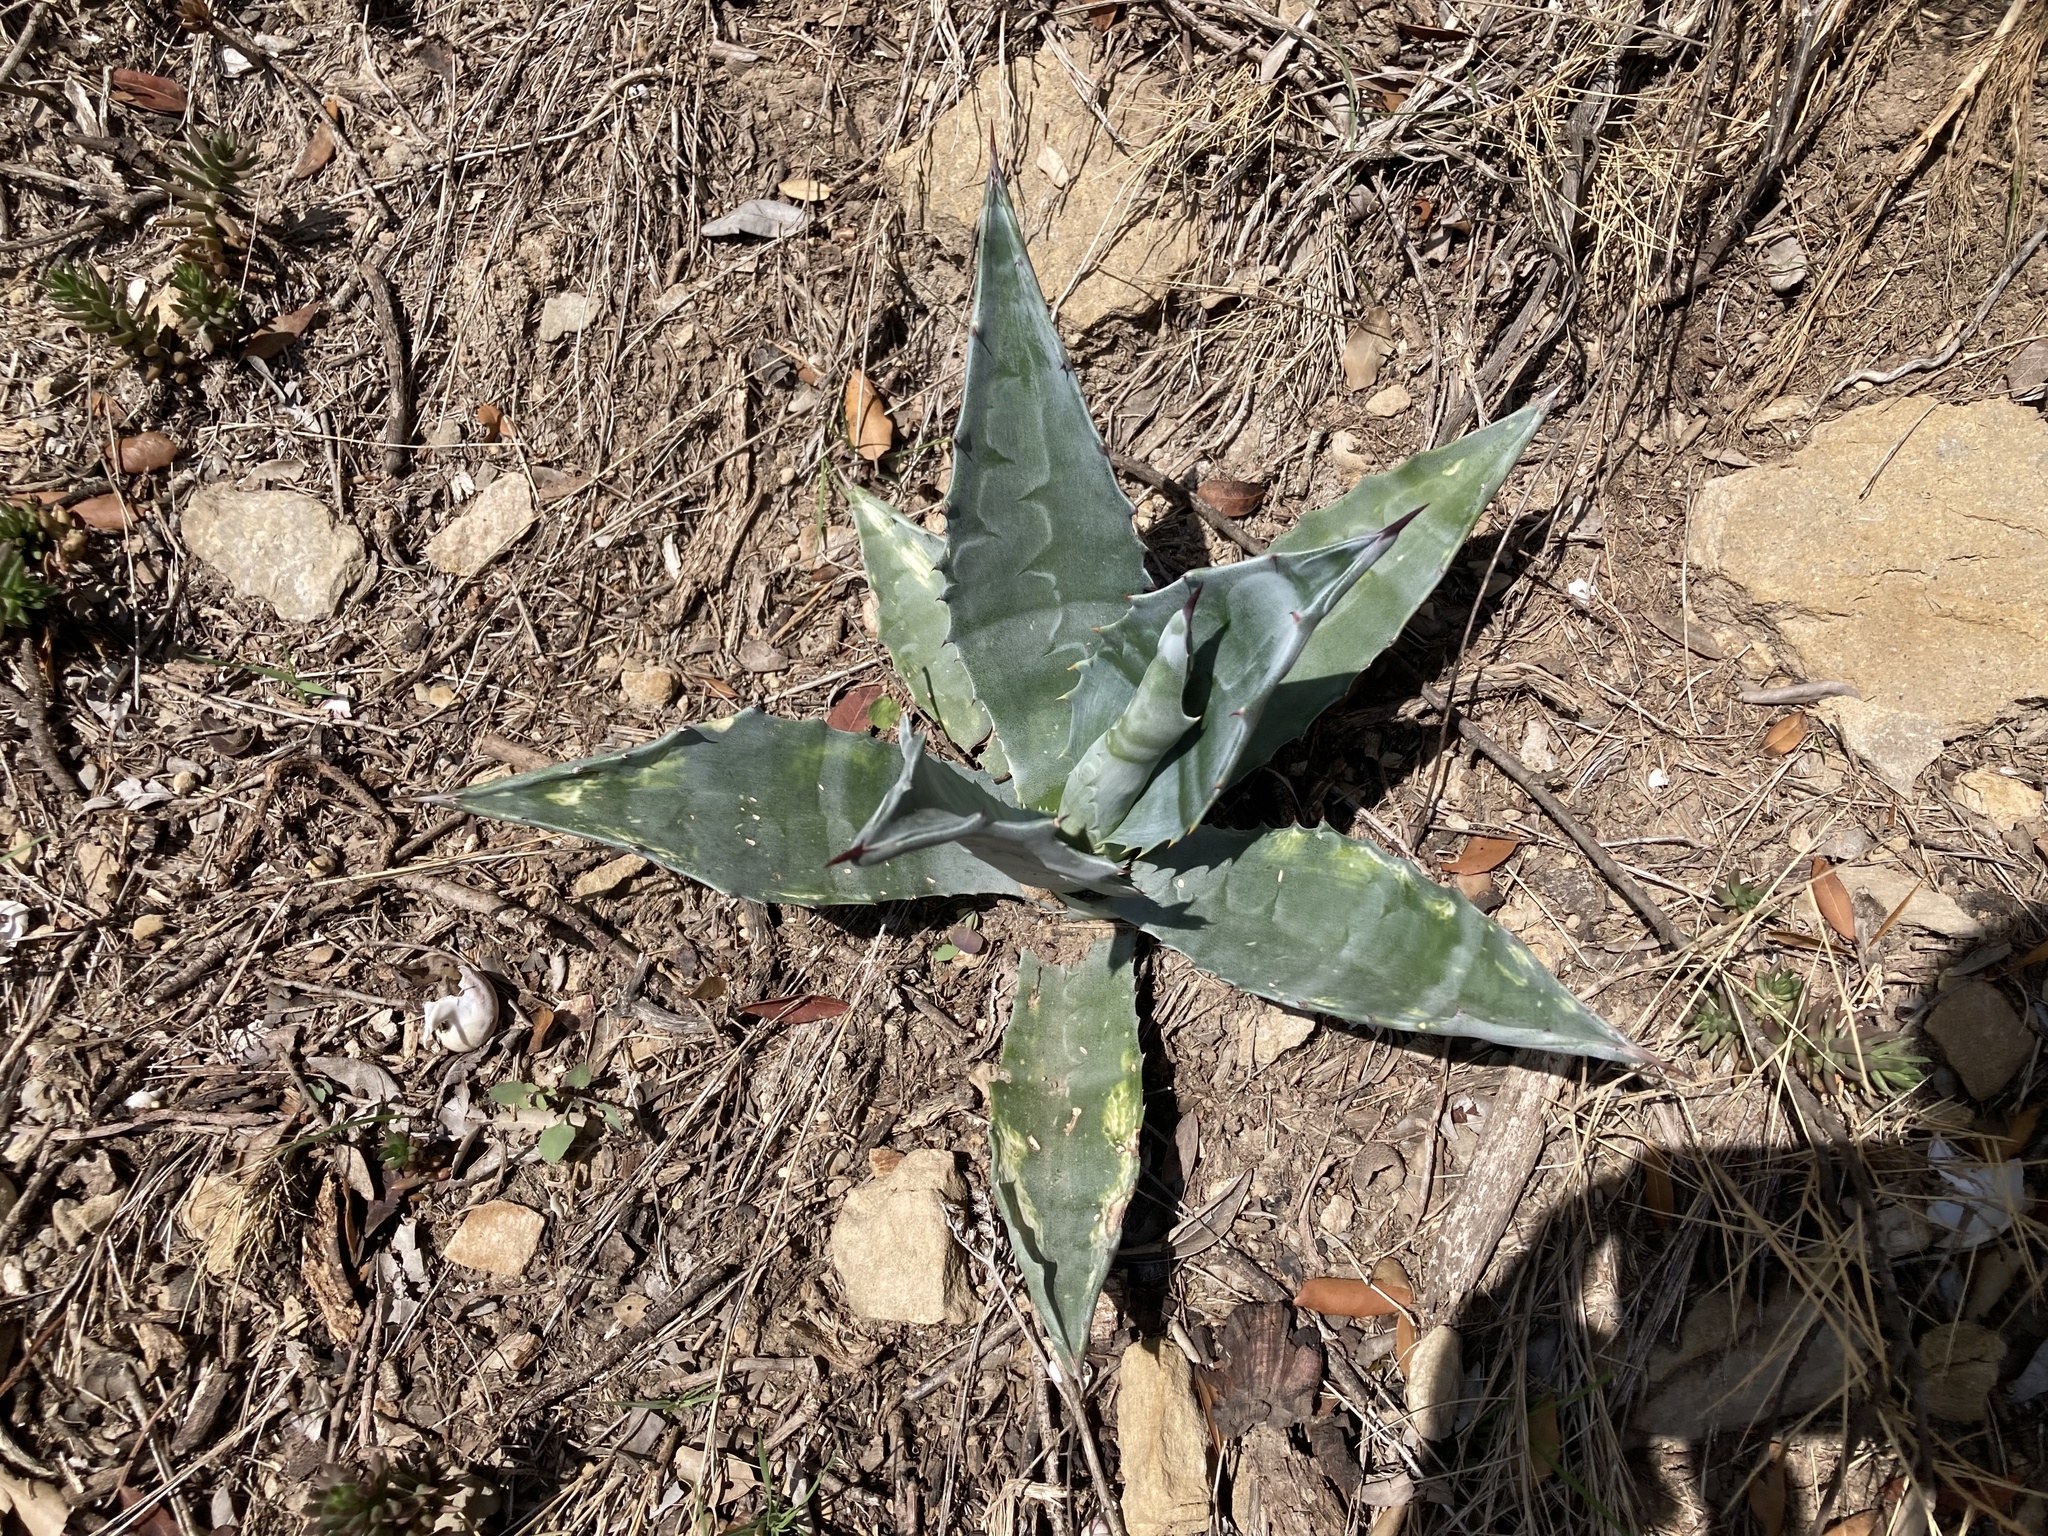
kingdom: Plantae
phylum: Tracheophyta
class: Liliopsida
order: Asparagales
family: Asparagaceae
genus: Agave
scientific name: Agave americana
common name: Centuryplant
